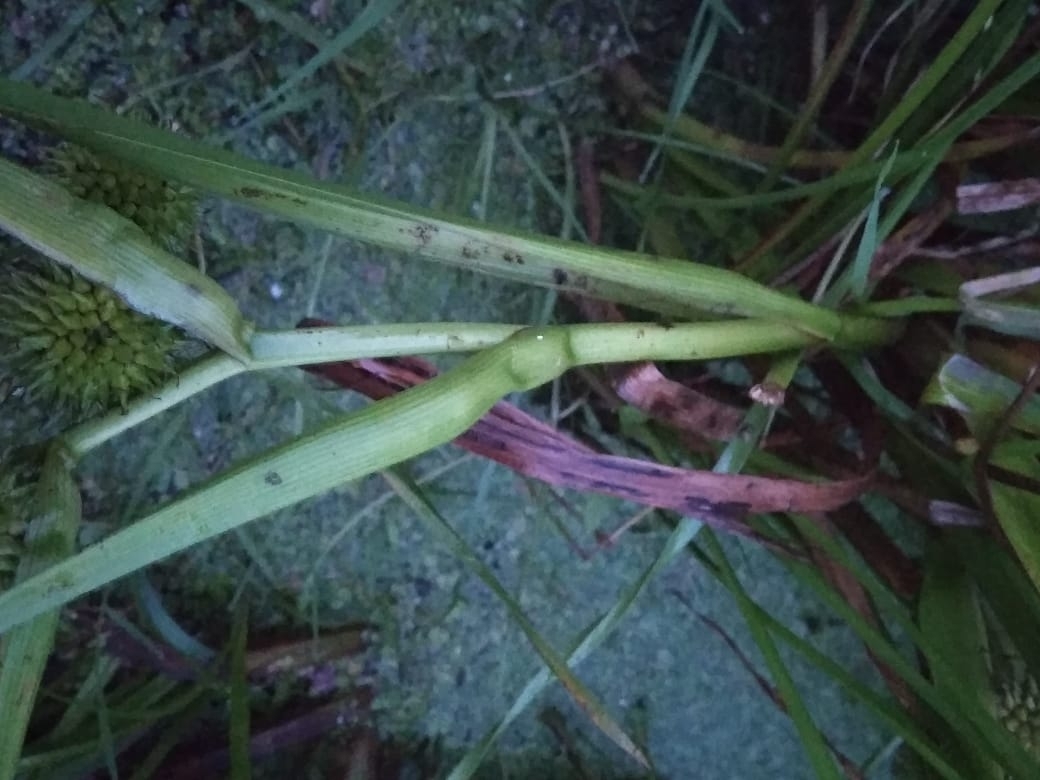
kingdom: Plantae
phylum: Tracheophyta
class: Liliopsida
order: Poales
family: Typhaceae
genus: Sparganium
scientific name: Sparganium erectum
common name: Branched bur-reed
